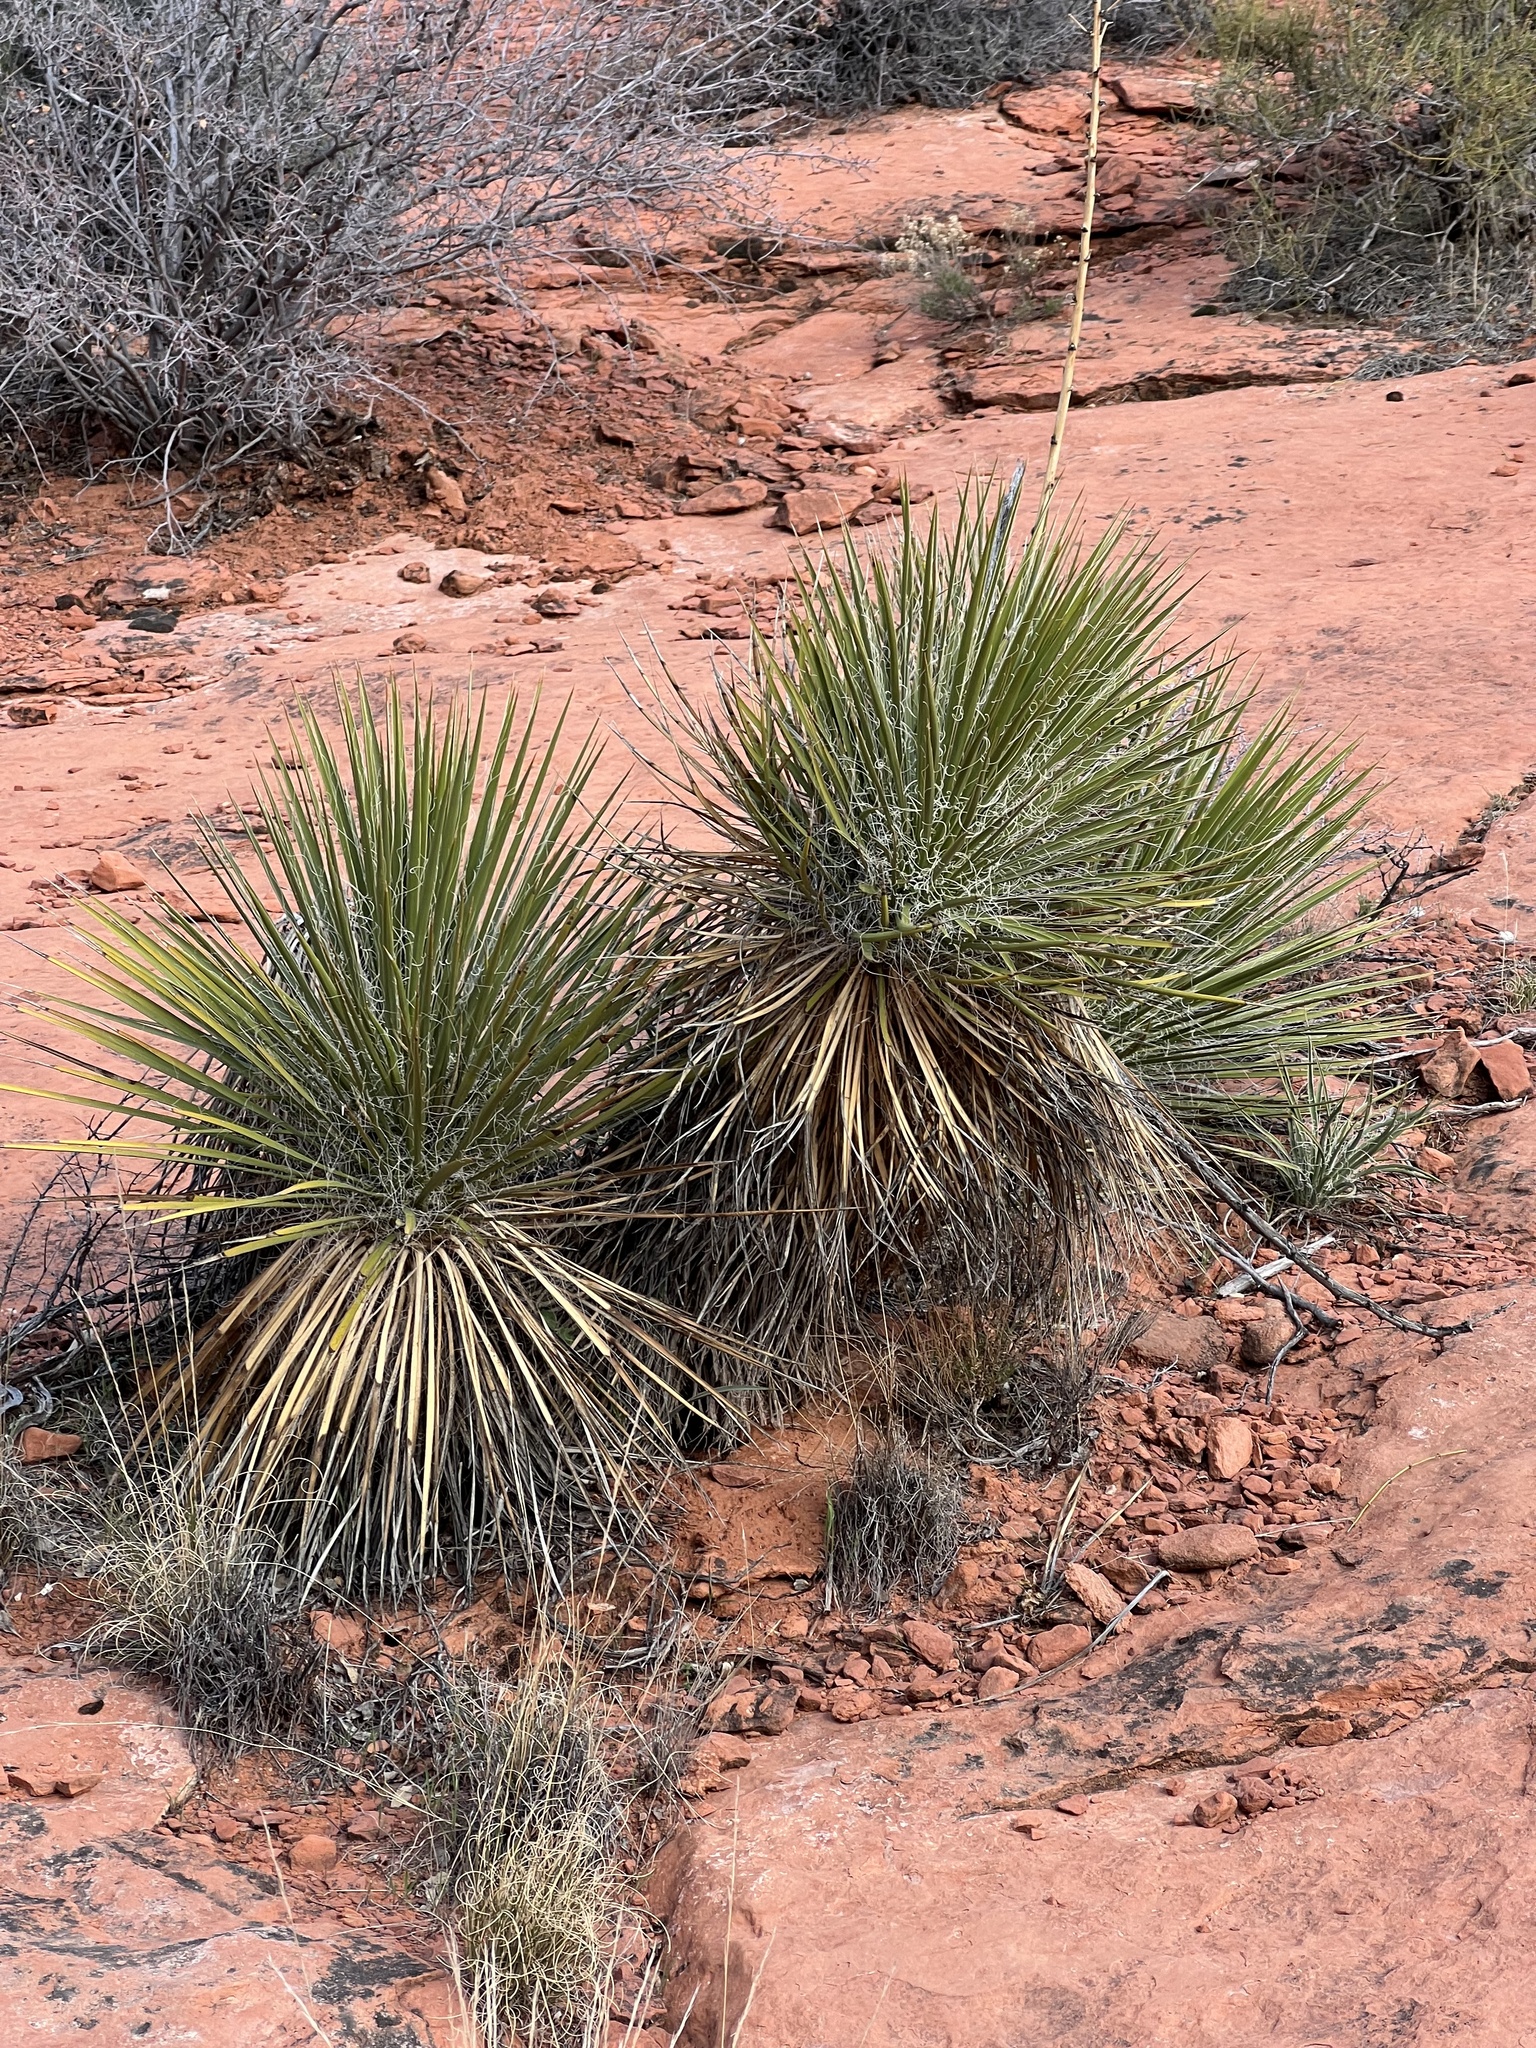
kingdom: Plantae
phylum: Tracheophyta
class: Liliopsida
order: Asparagales
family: Asparagaceae
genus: Yucca
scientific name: Yucca utahensis
